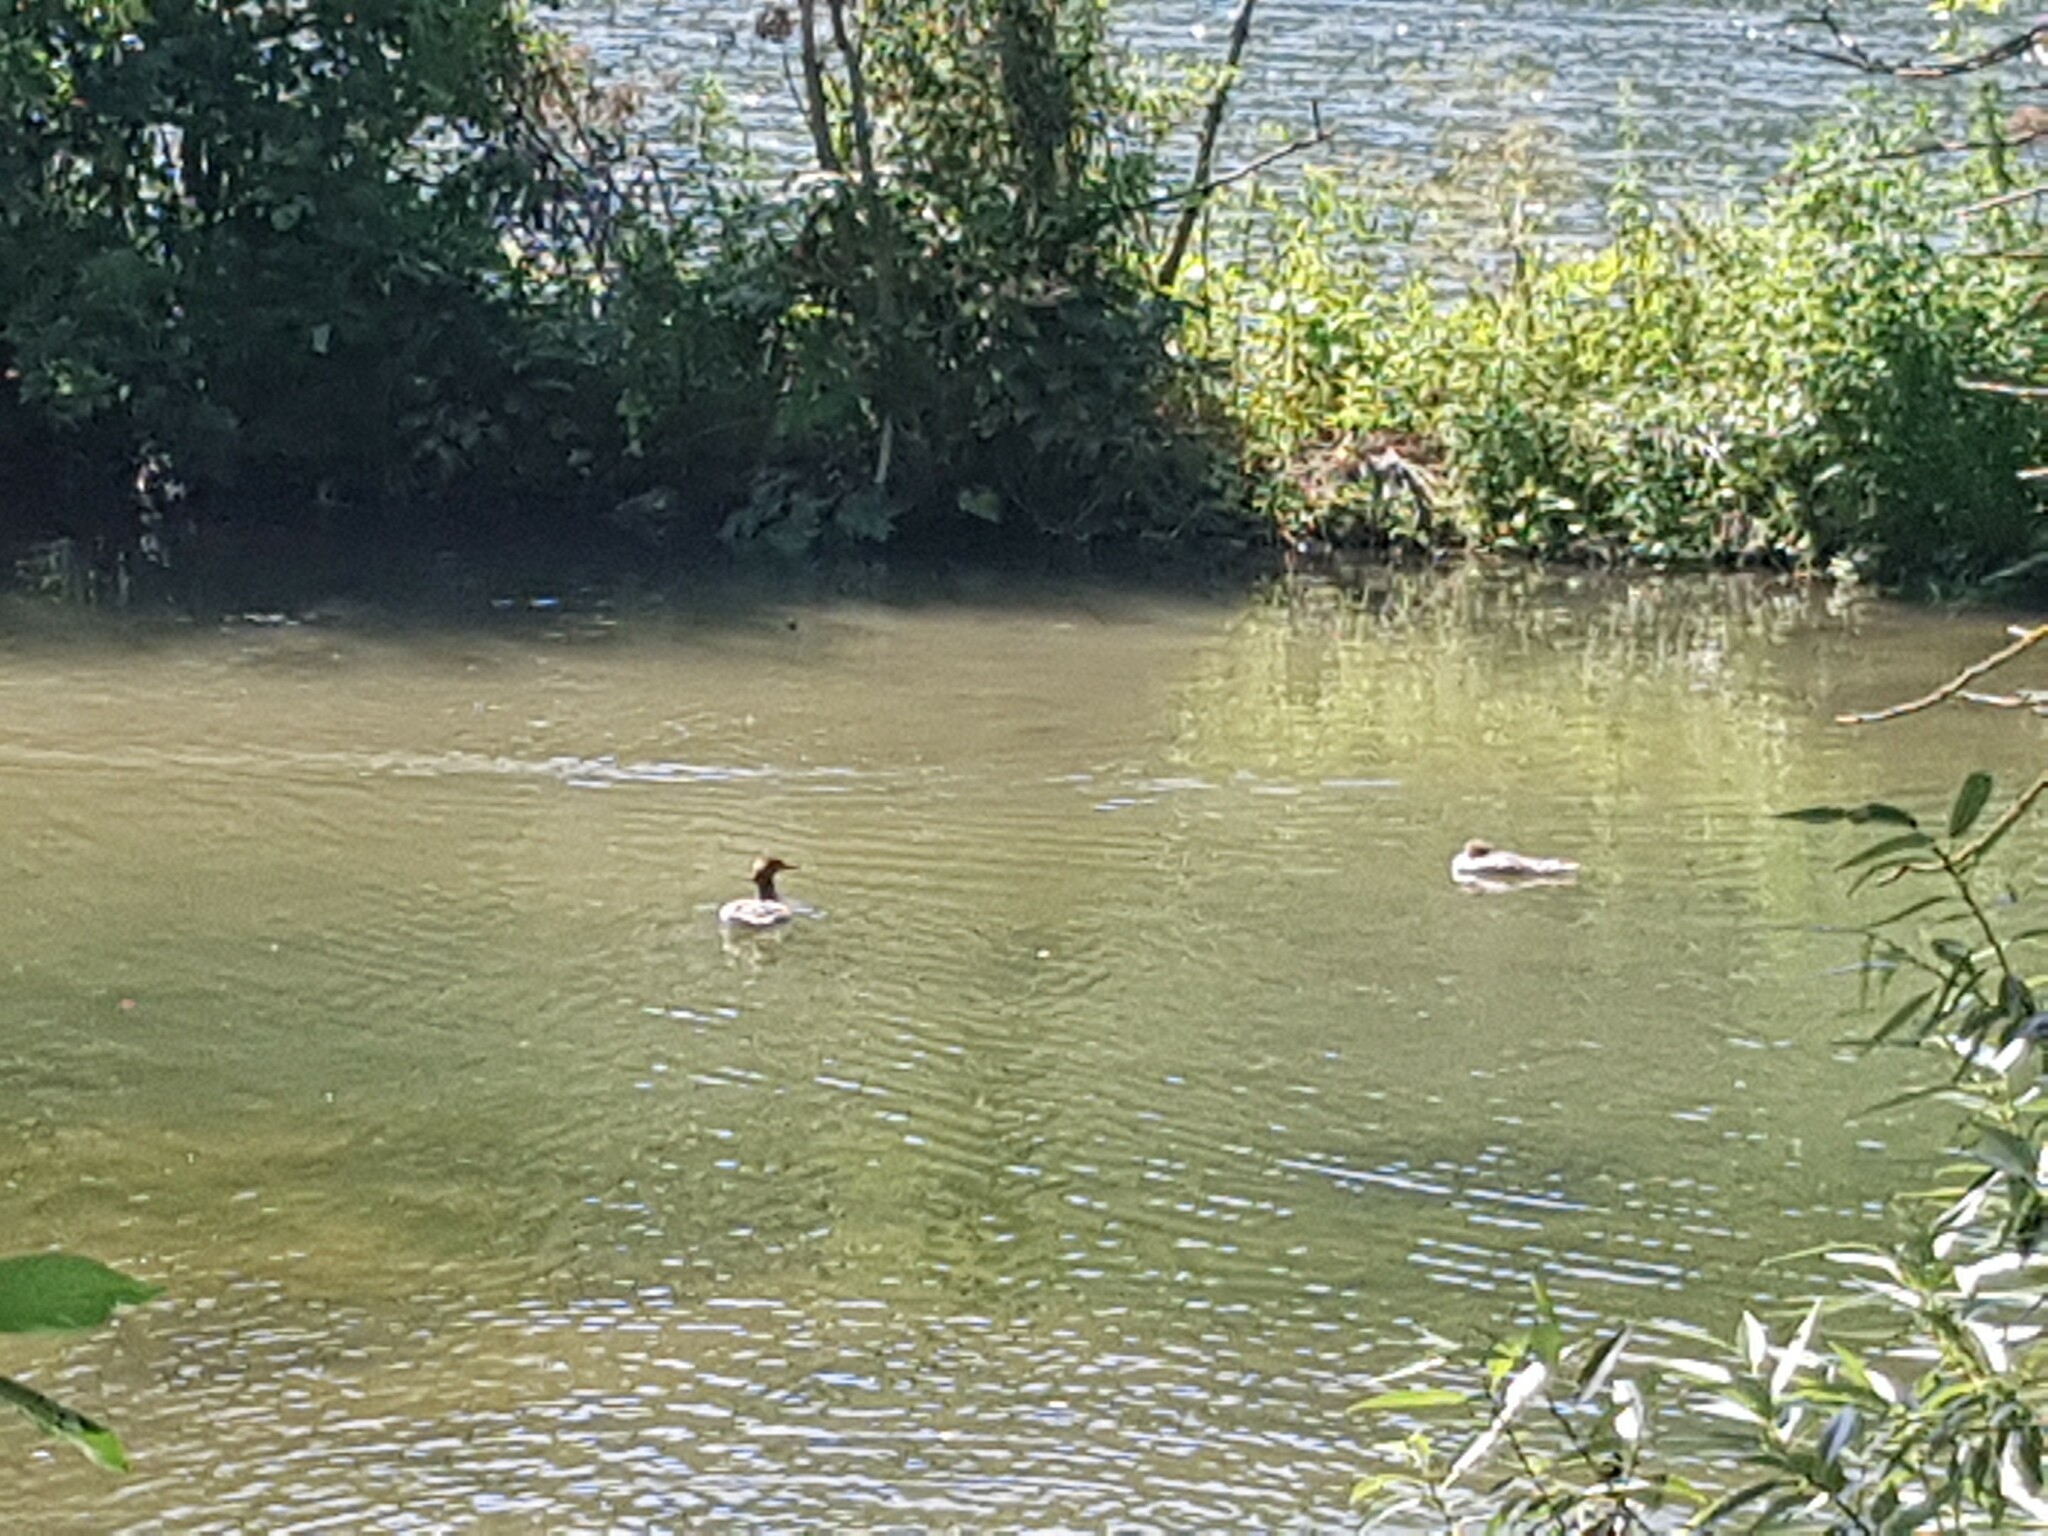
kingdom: Animalia
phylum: Chordata
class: Aves
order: Anseriformes
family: Anatidae
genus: Mergus
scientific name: Mergus merganser
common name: Common merganser
